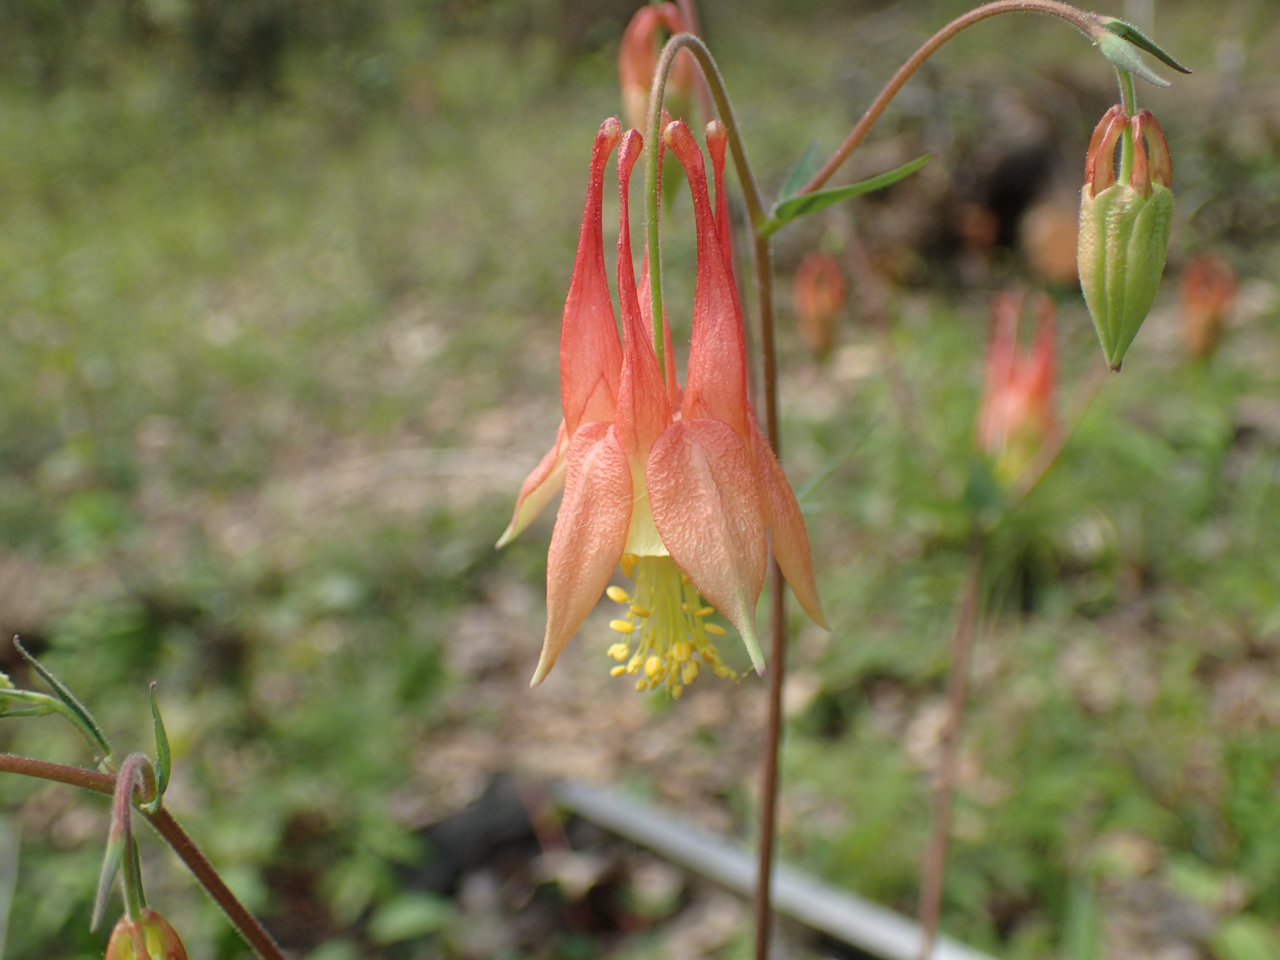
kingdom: Plantae
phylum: Tracheophyta
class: Magnoliopsida
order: Ranunculales
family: Ranunculaceae
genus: Aquilegia
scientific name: Aquilegia canadensis
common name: American columbine
